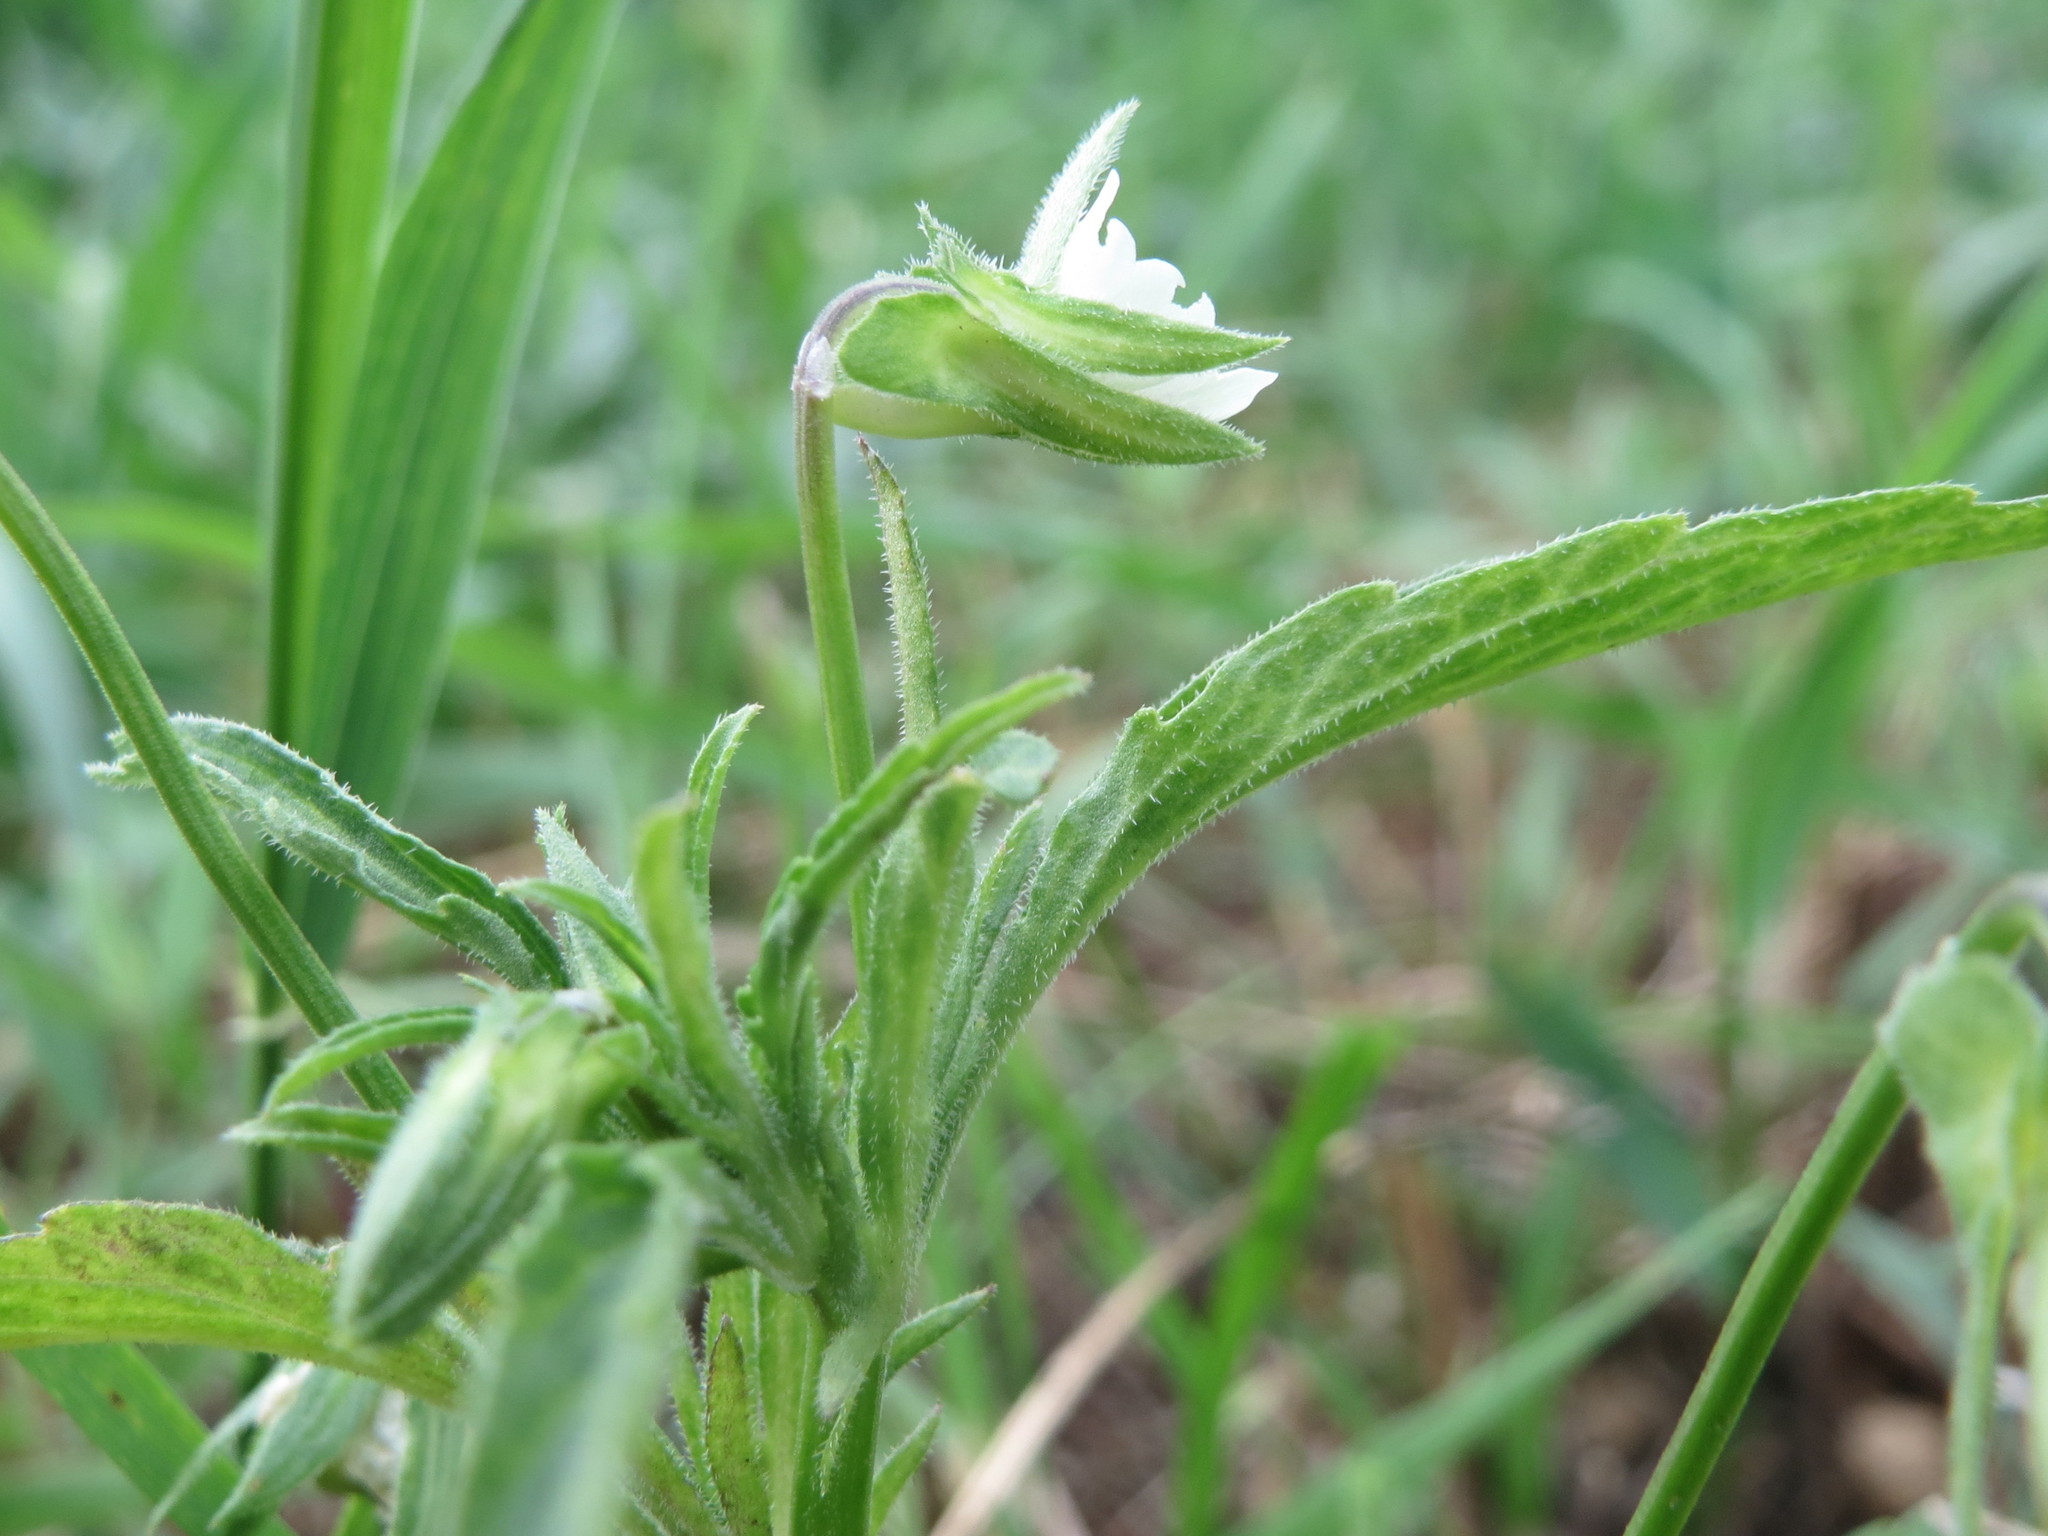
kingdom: Plantae
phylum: Tracheophyta
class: Magnoliopsida
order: Malpighiales
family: Violaceae
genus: Viola
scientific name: Viola arvensis
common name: Field pansy
